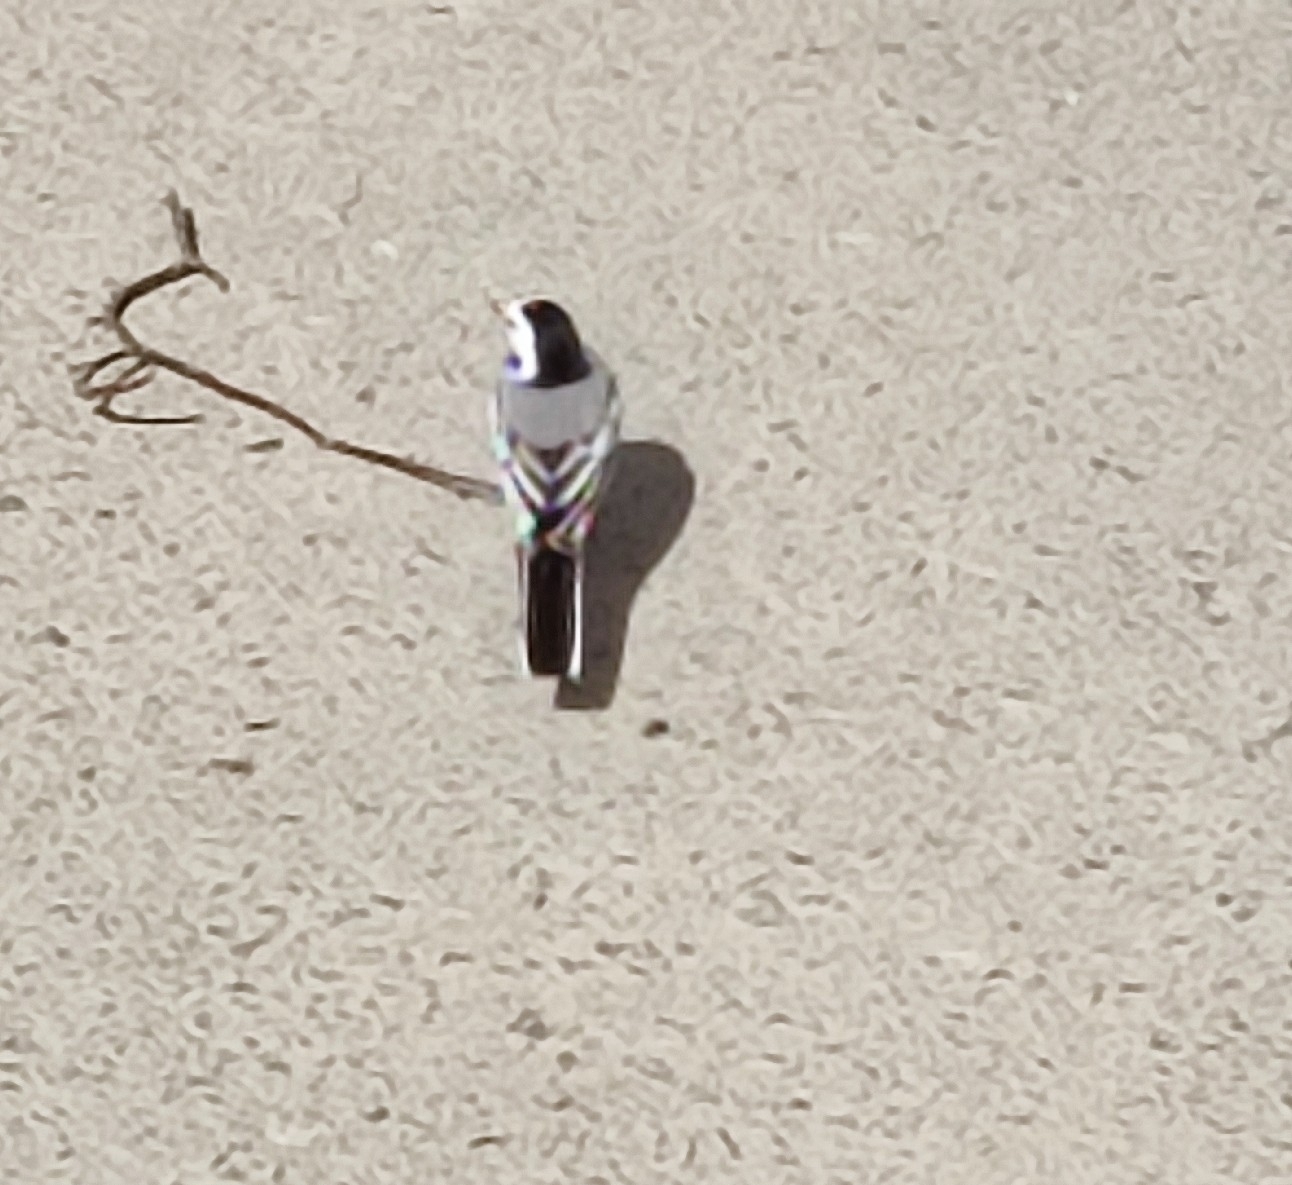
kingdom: Animalia
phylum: Chordata
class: Aves
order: Passeriformes
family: Motacillidae
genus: Motacilla
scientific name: Motacilla alba
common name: White wagtail
